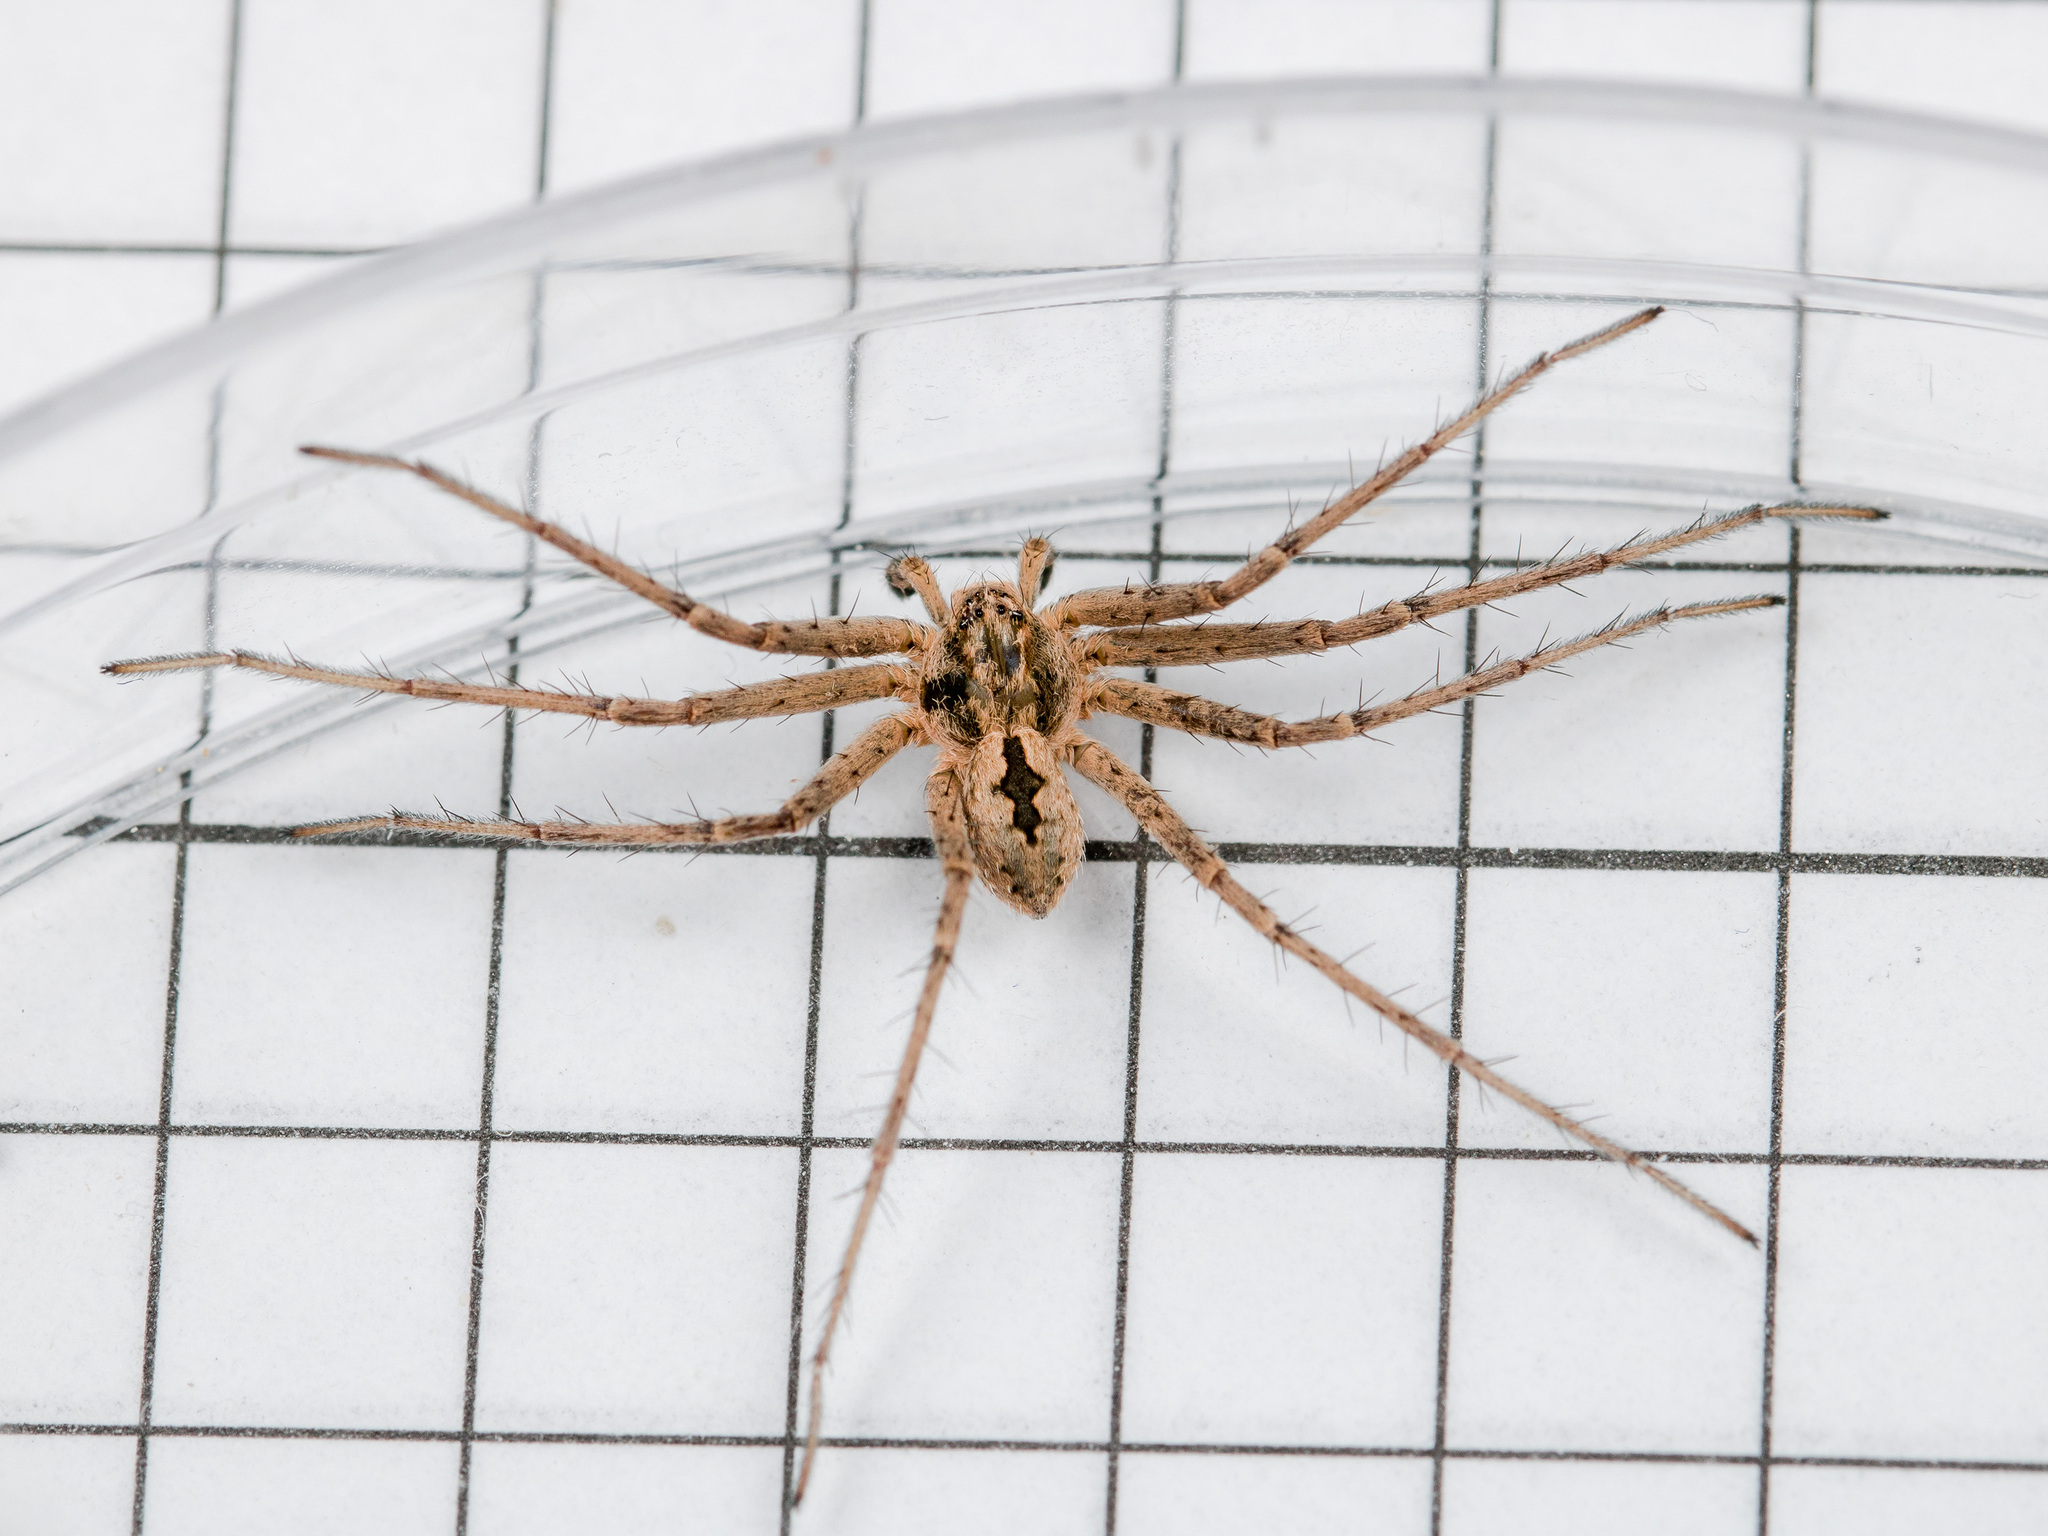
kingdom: Animalia
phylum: Arthropoda
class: Arachnida
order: Araneae
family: Philodromidae
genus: Thanatus
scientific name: Thanatus kitabensis
